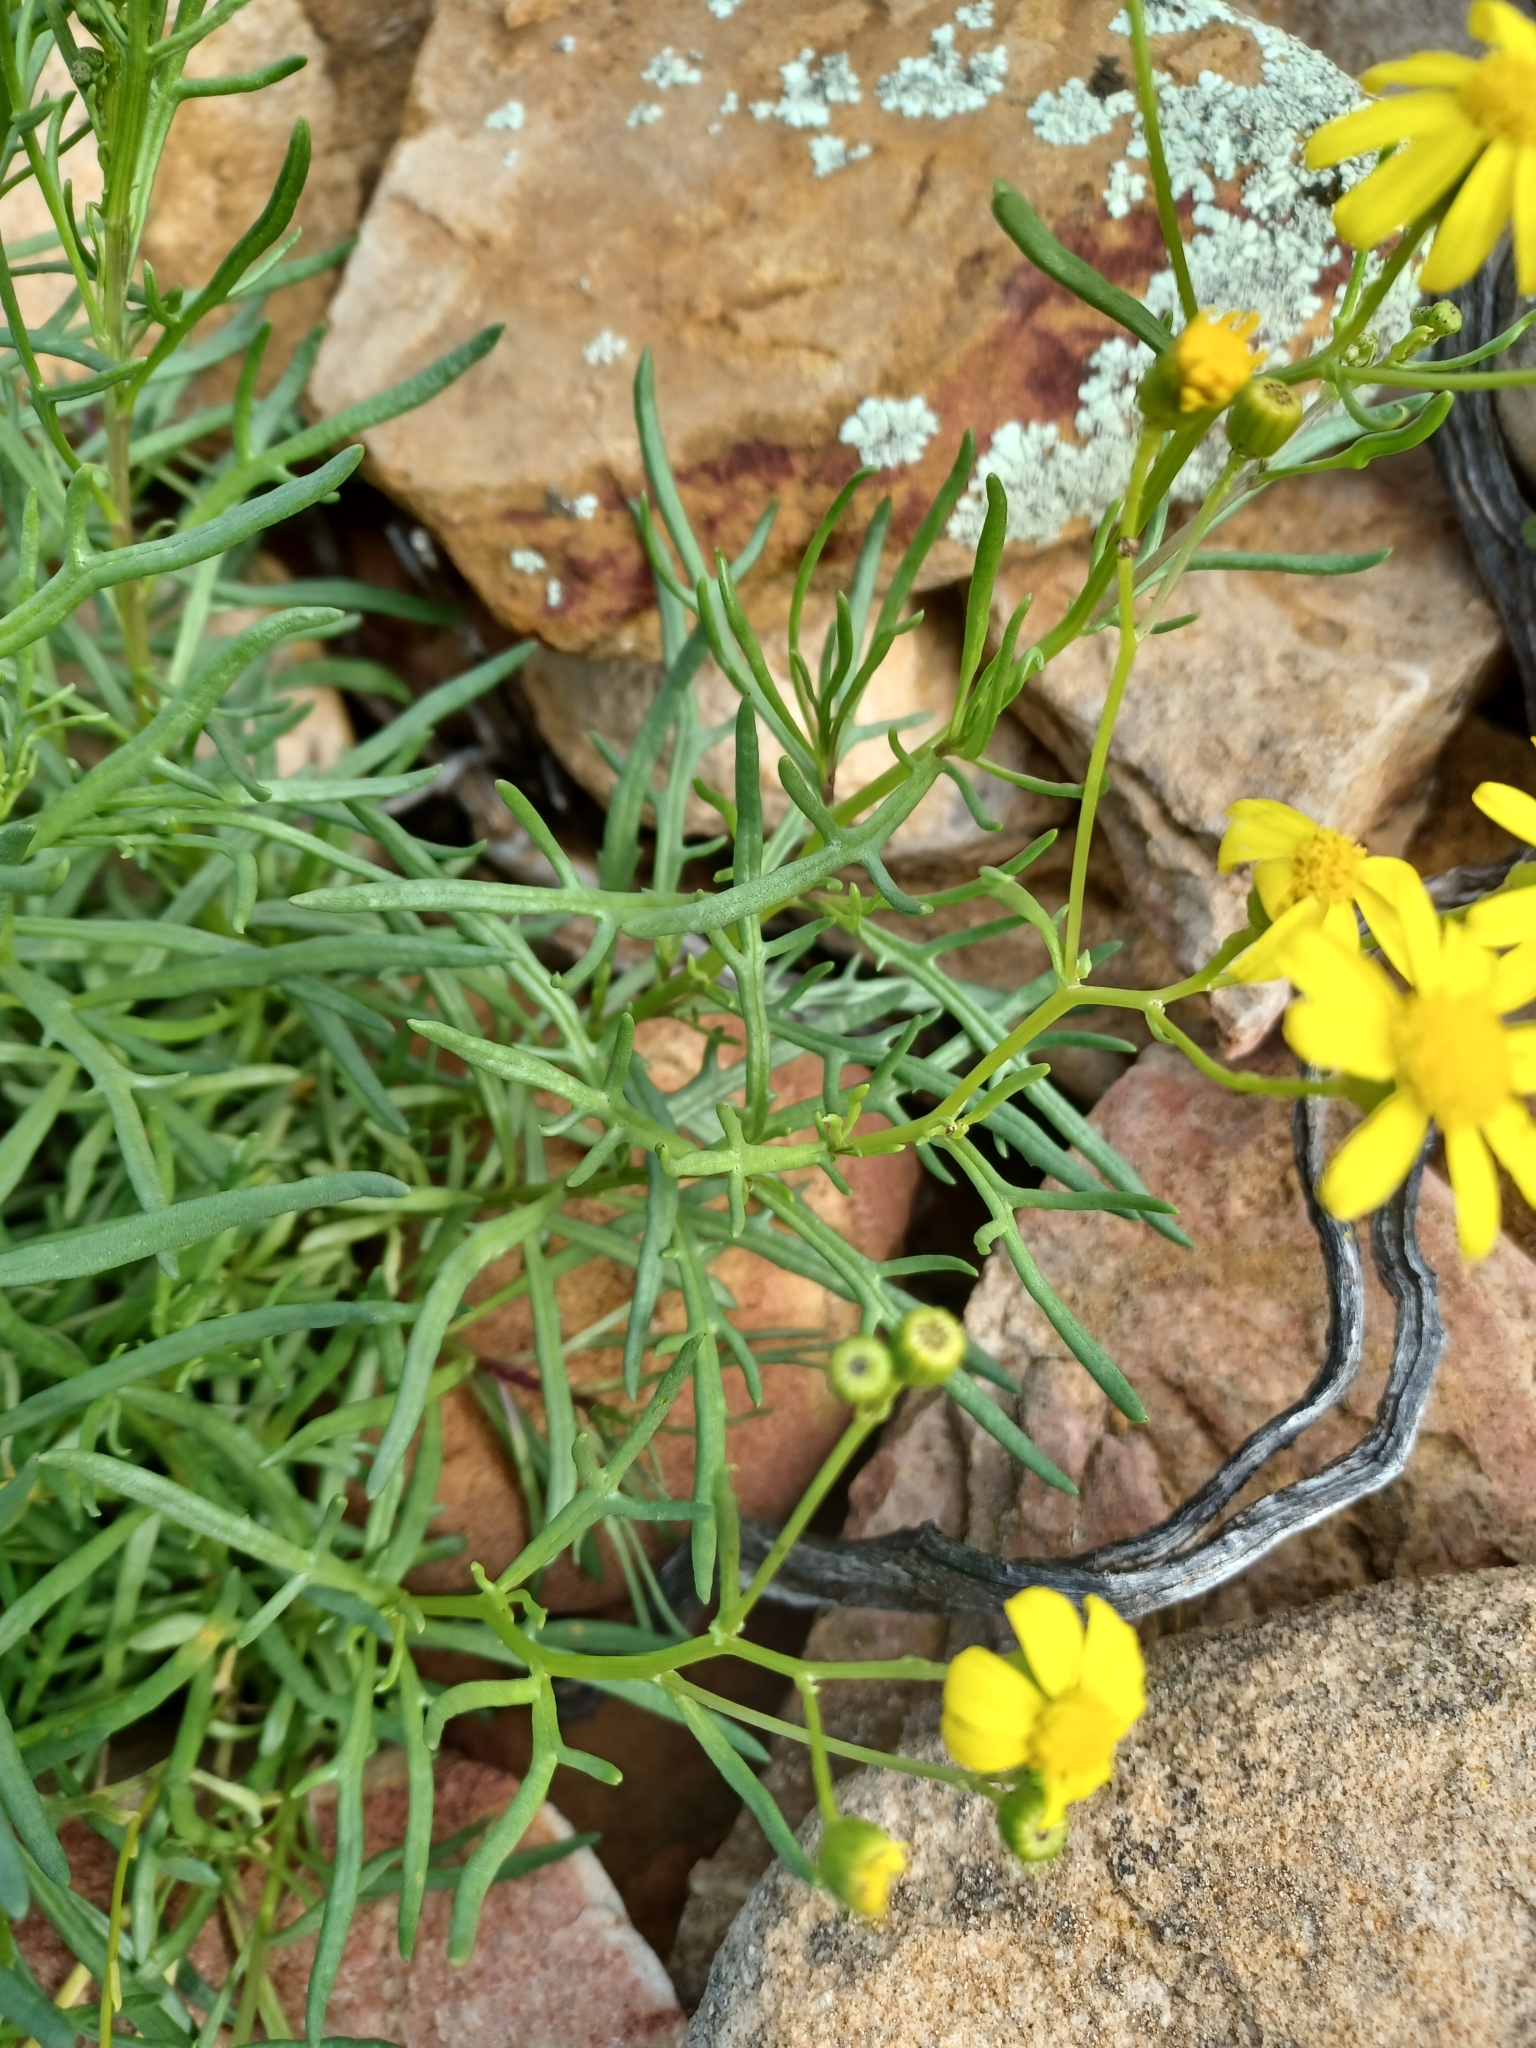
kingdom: Plantae
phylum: Tracheophyta
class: Magnoliopsida
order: Asterales
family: Asteraceae
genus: Senecio
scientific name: Senecio spanomerus
